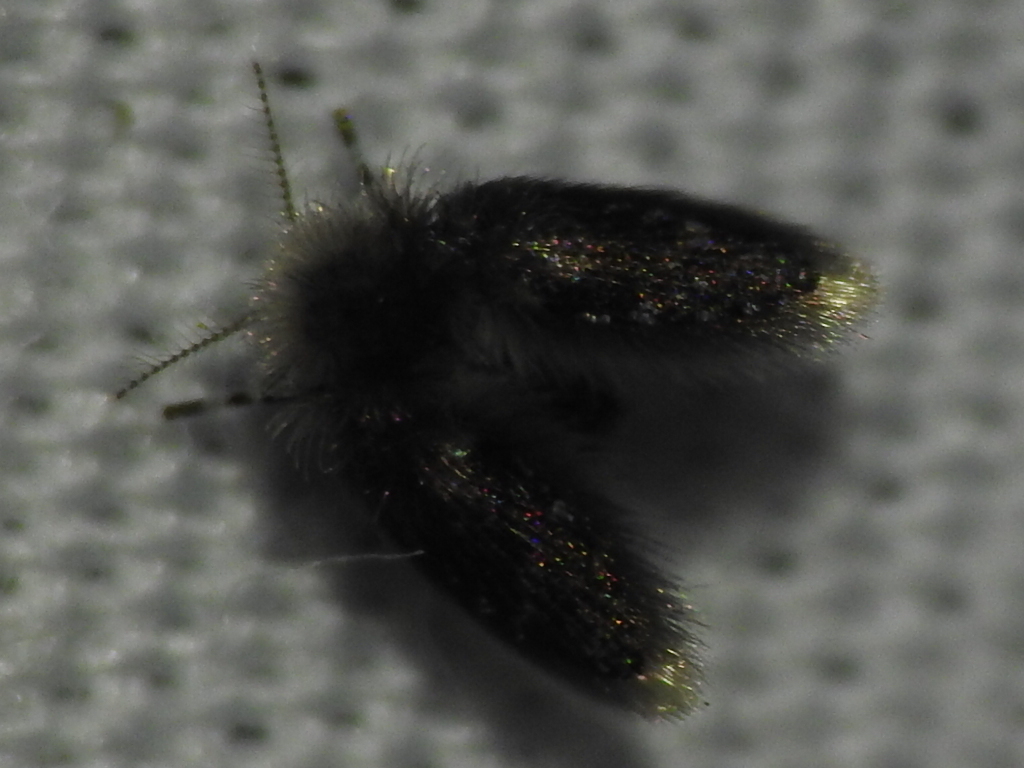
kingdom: Animalia
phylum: Arthropoda
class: Insecta
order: Diptera
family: Psychodidae
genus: Setomima
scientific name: Setomima
